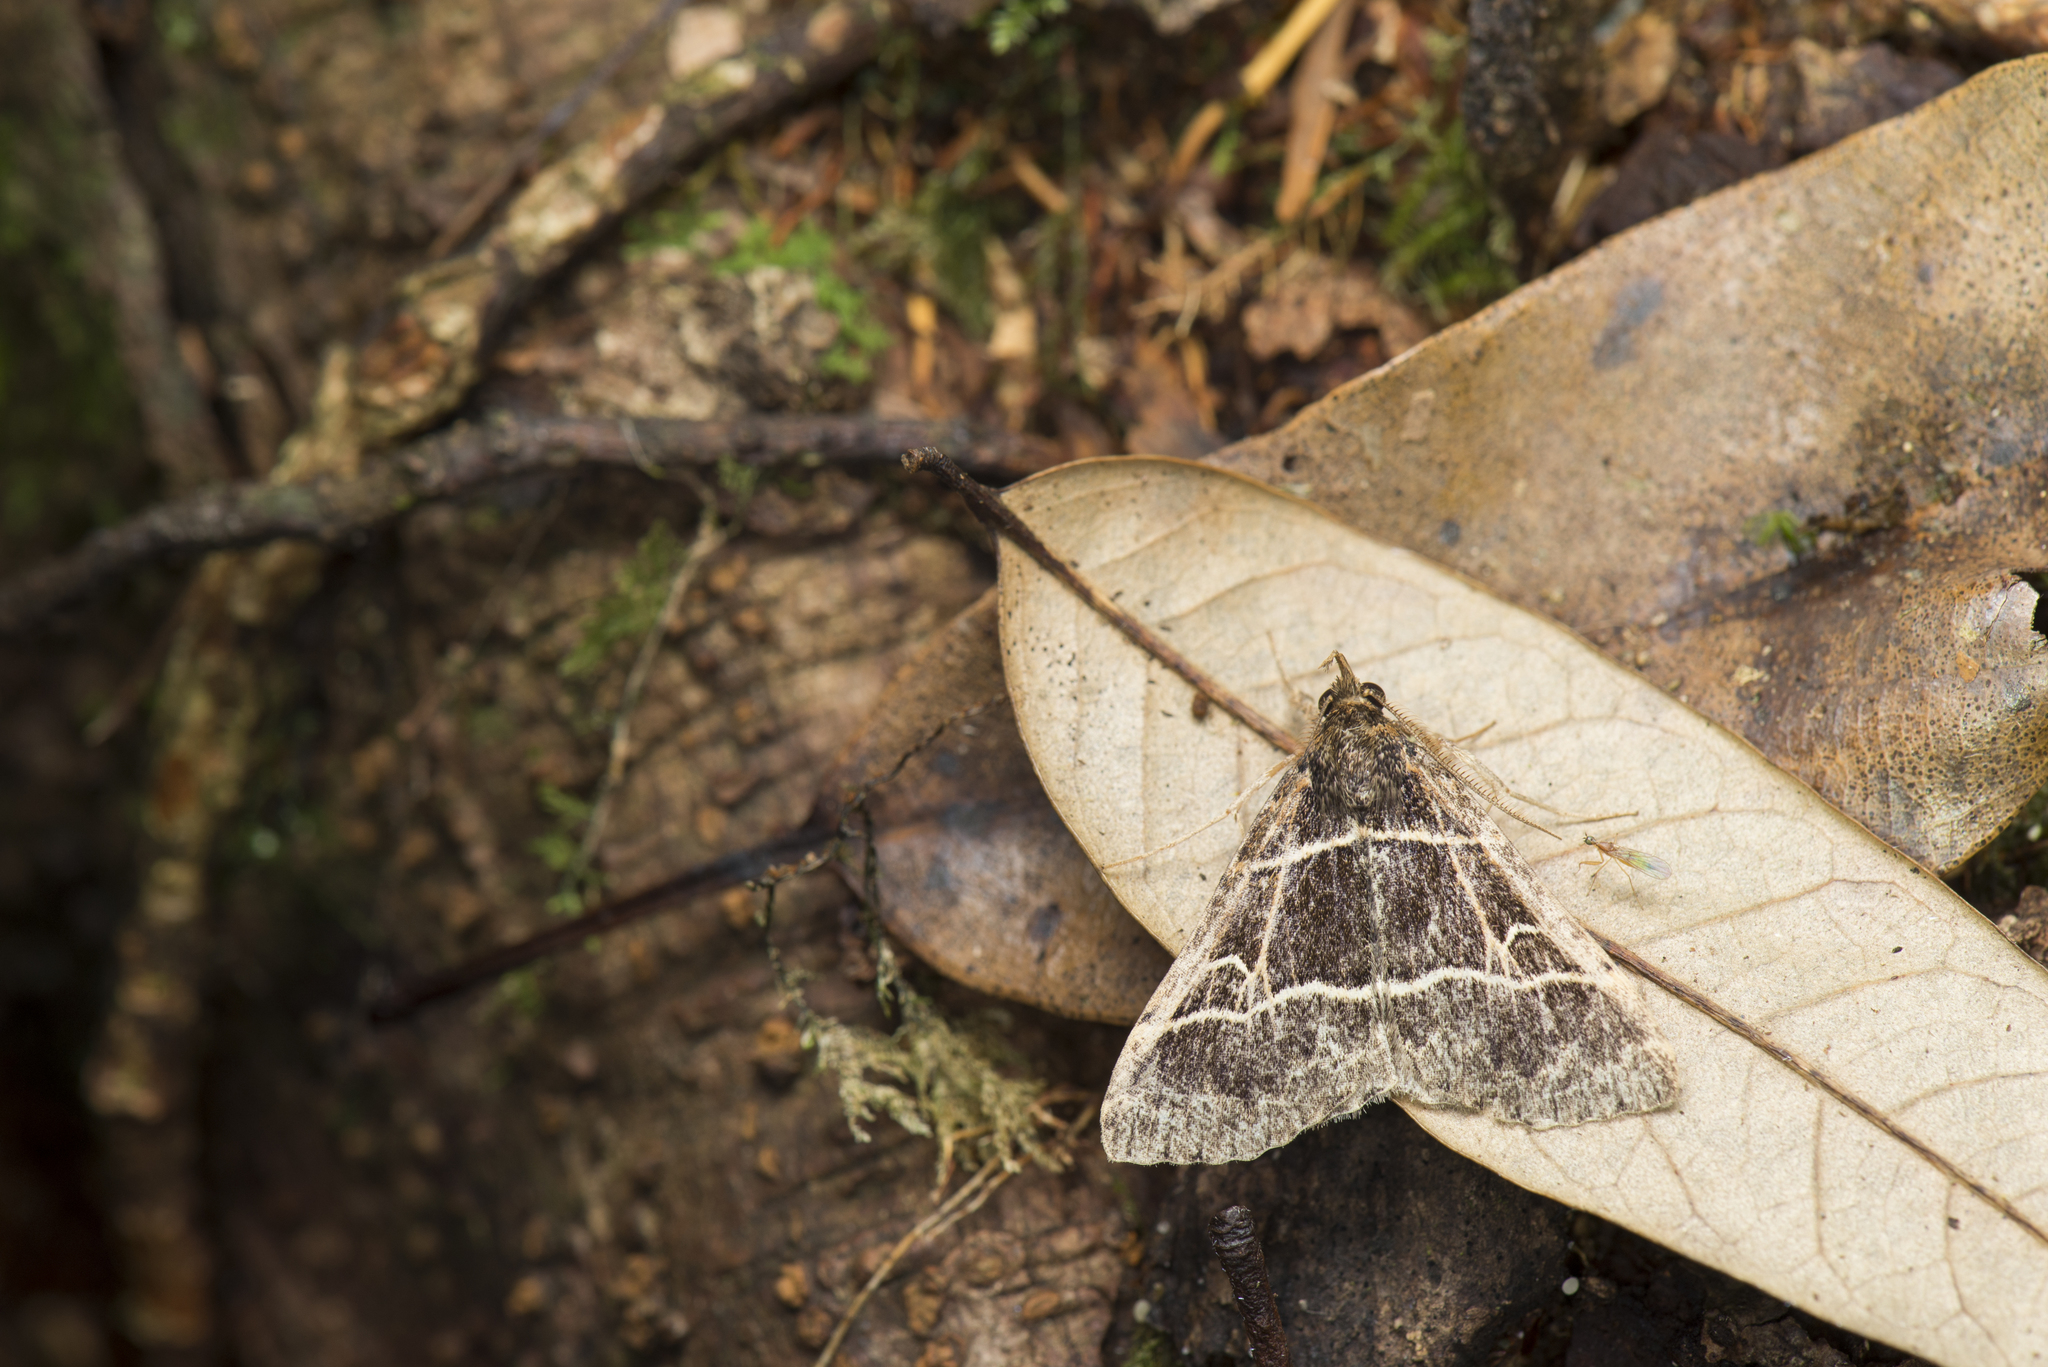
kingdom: Animalia
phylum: Arthropoda
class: Insecta
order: Lepidoptera
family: Erebidae
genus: Bertula
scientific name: Bertula bisectalis
